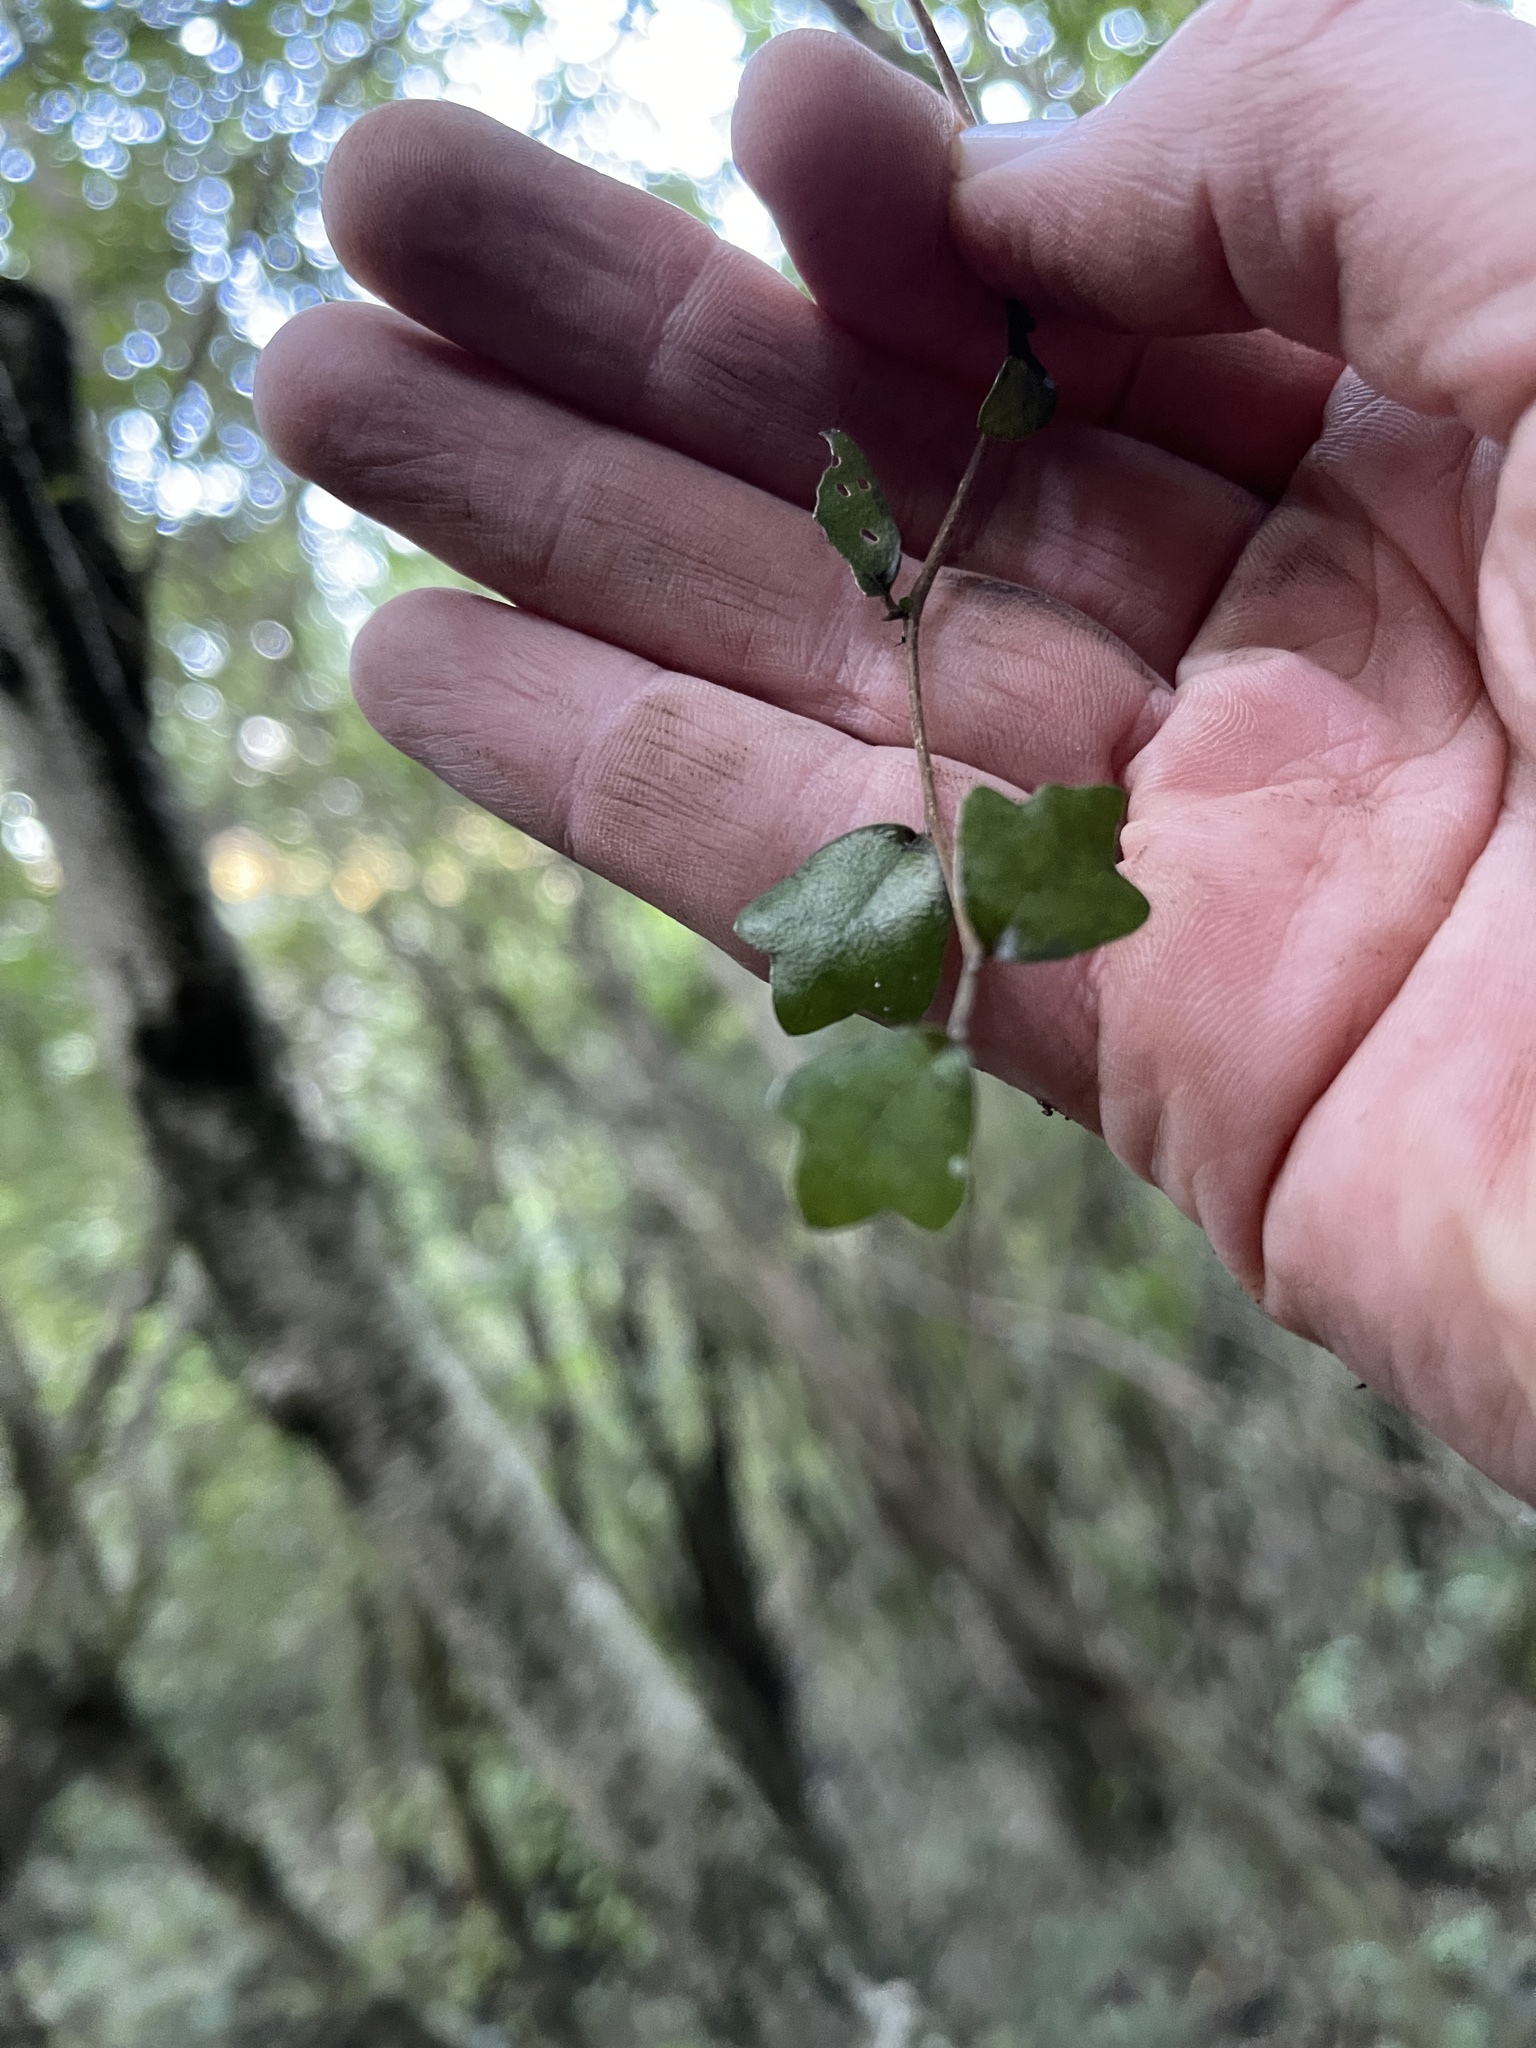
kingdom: Plantae
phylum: Tracheophyta
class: Magnoliopsida
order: Apiales
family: Pennantiaceae
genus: Pennantia
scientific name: Pennantia corymbosa
